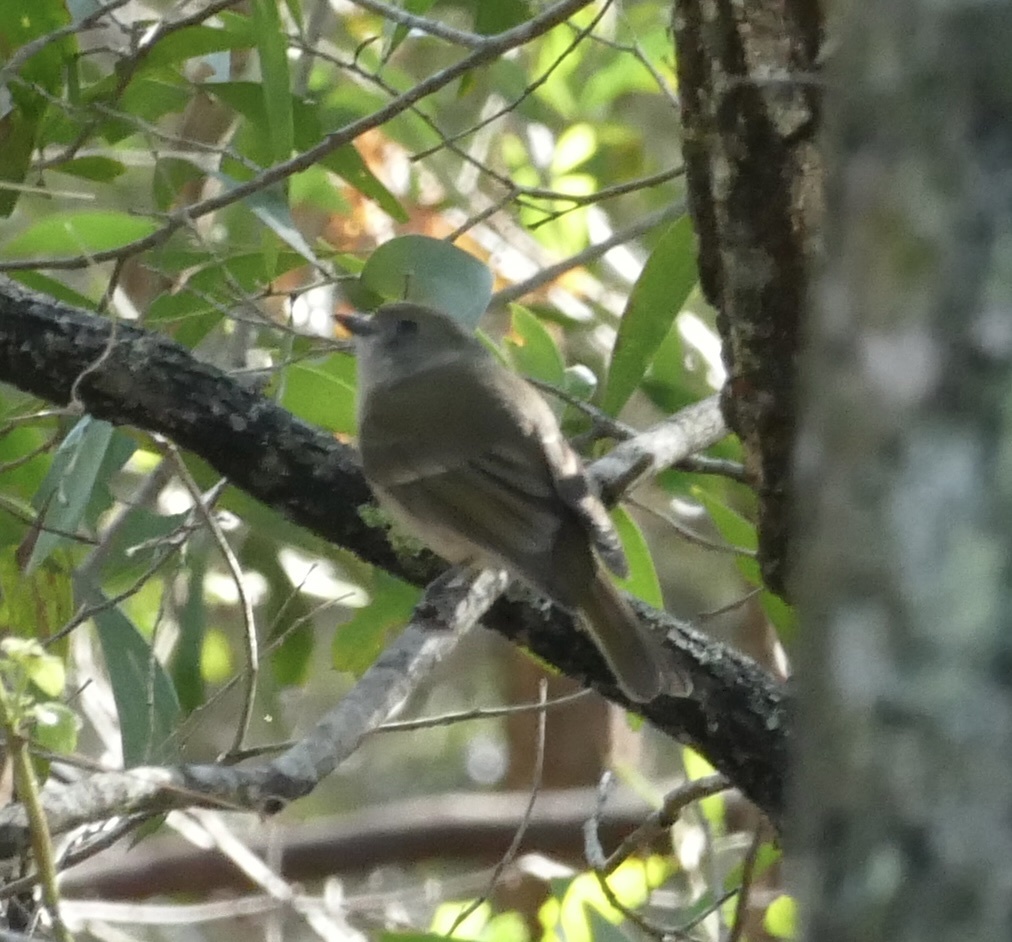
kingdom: Animalia
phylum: Chordata
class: Aves
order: Passeriformes
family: Pachycephalidae
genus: Pachycephala
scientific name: Pachycephala pectoralis
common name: Australian golden whistler
